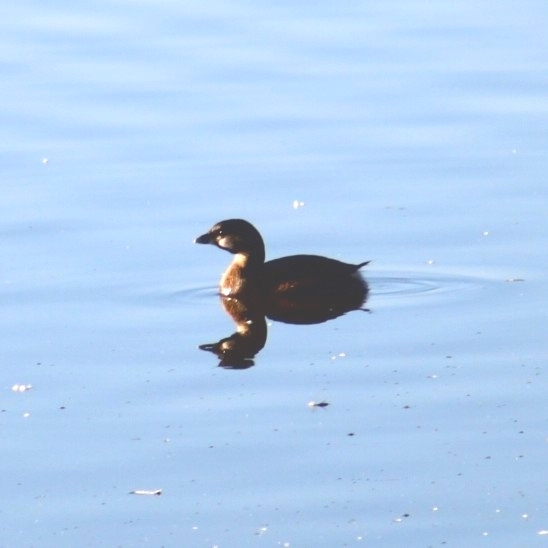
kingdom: Animalia
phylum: Chordata
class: Aves
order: Podicipediformes
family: Podicipedidae
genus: Podilymbus
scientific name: Podilymbus podiceps
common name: Pied-billed grebe
